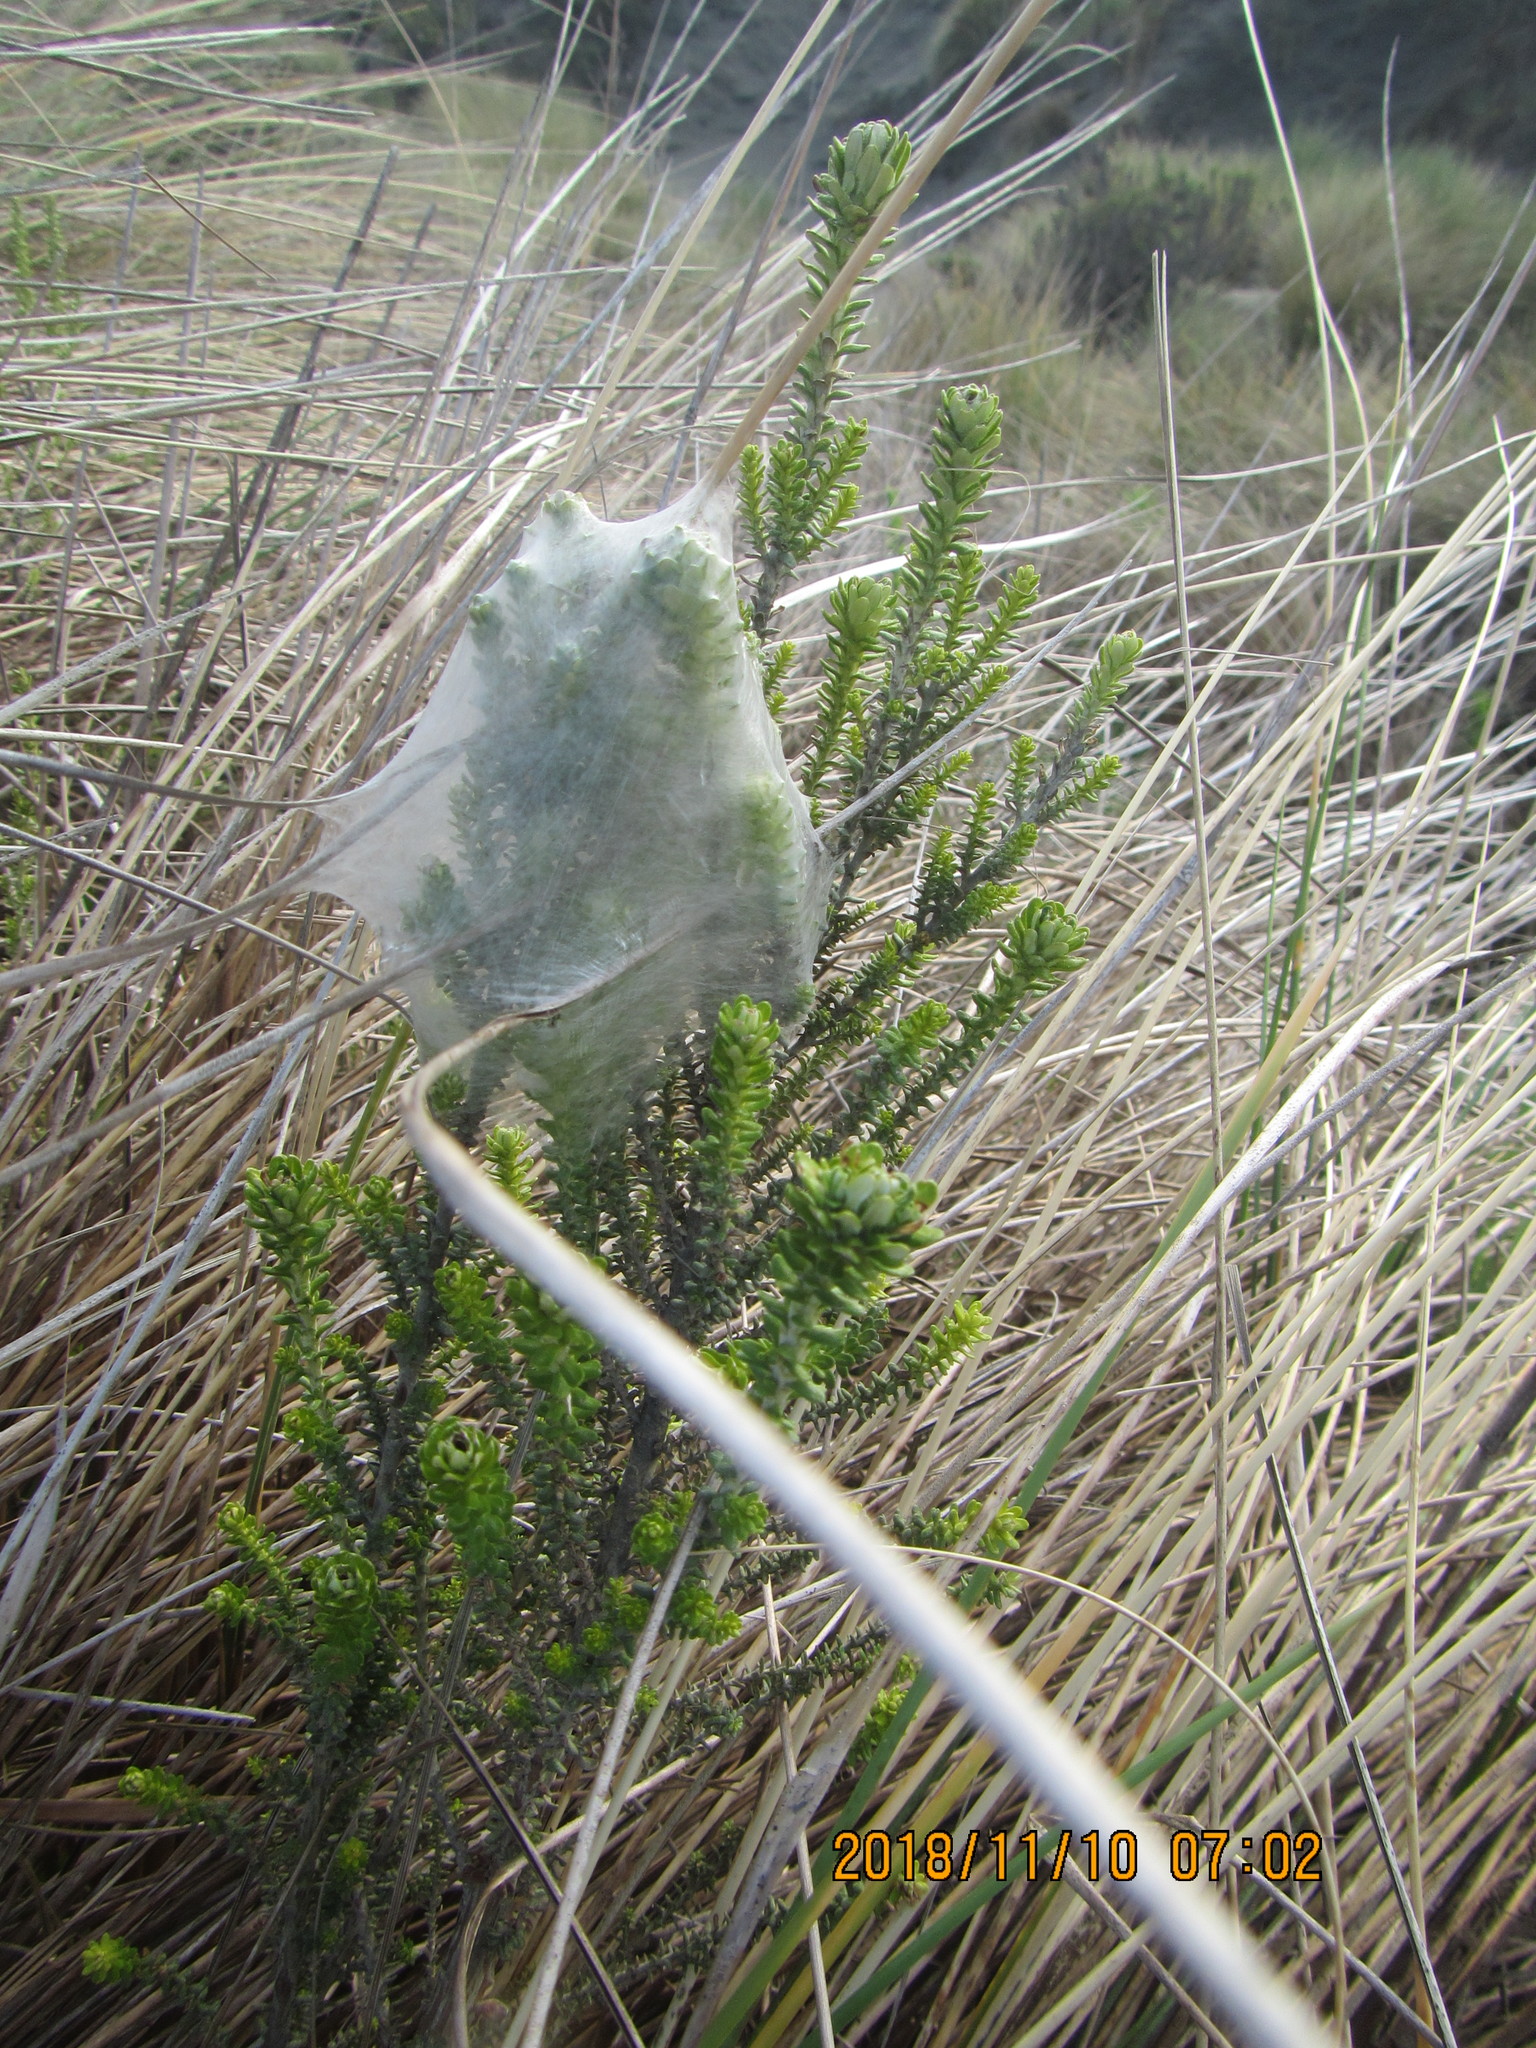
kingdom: Animalia
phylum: Arthropoda
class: Arachnida
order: Araneae
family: Pisauridae
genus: Dolomedes
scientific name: Dolomedes minor
